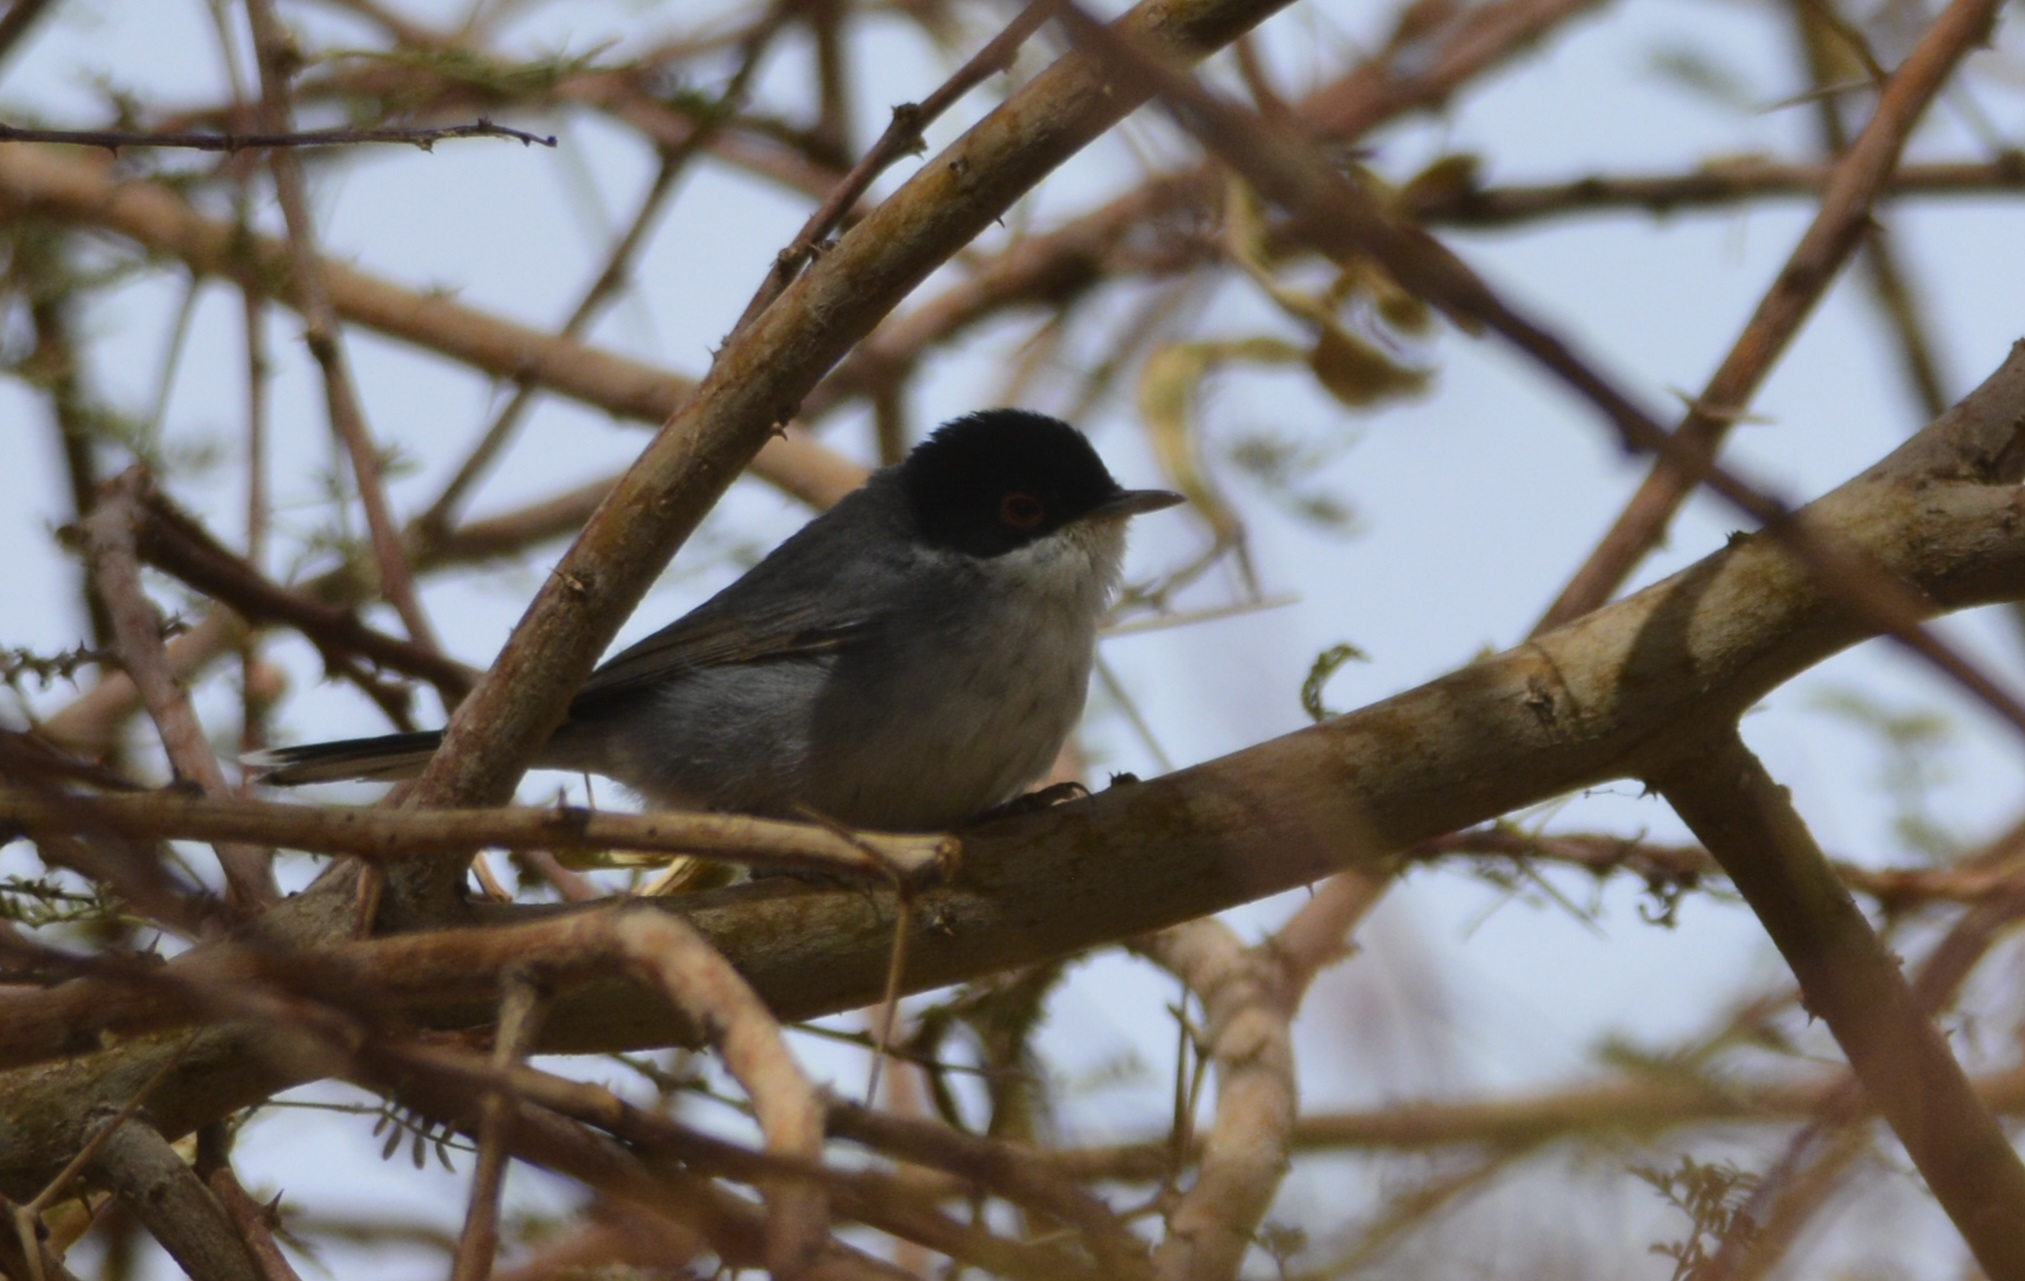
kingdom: Animalia
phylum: Chordata
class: Aves
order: Passeriformes
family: Sylviidae
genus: Curruca
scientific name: Curruca melanocephala
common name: Sardinian warbler
